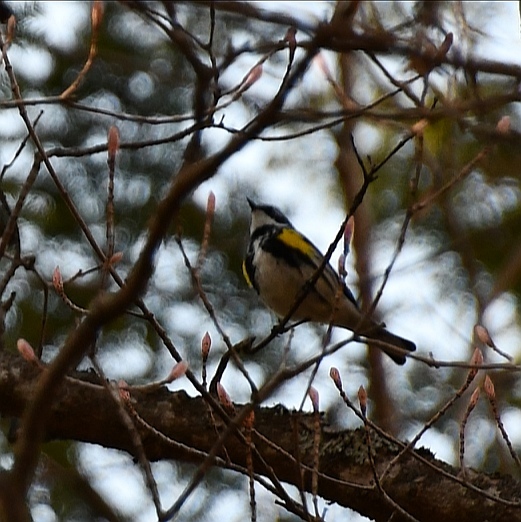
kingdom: Animalia
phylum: Chordata
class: Aves
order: Passeriformes
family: Parulidae
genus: Setophaga
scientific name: Setophaga coronata
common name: Myrtle warbler
